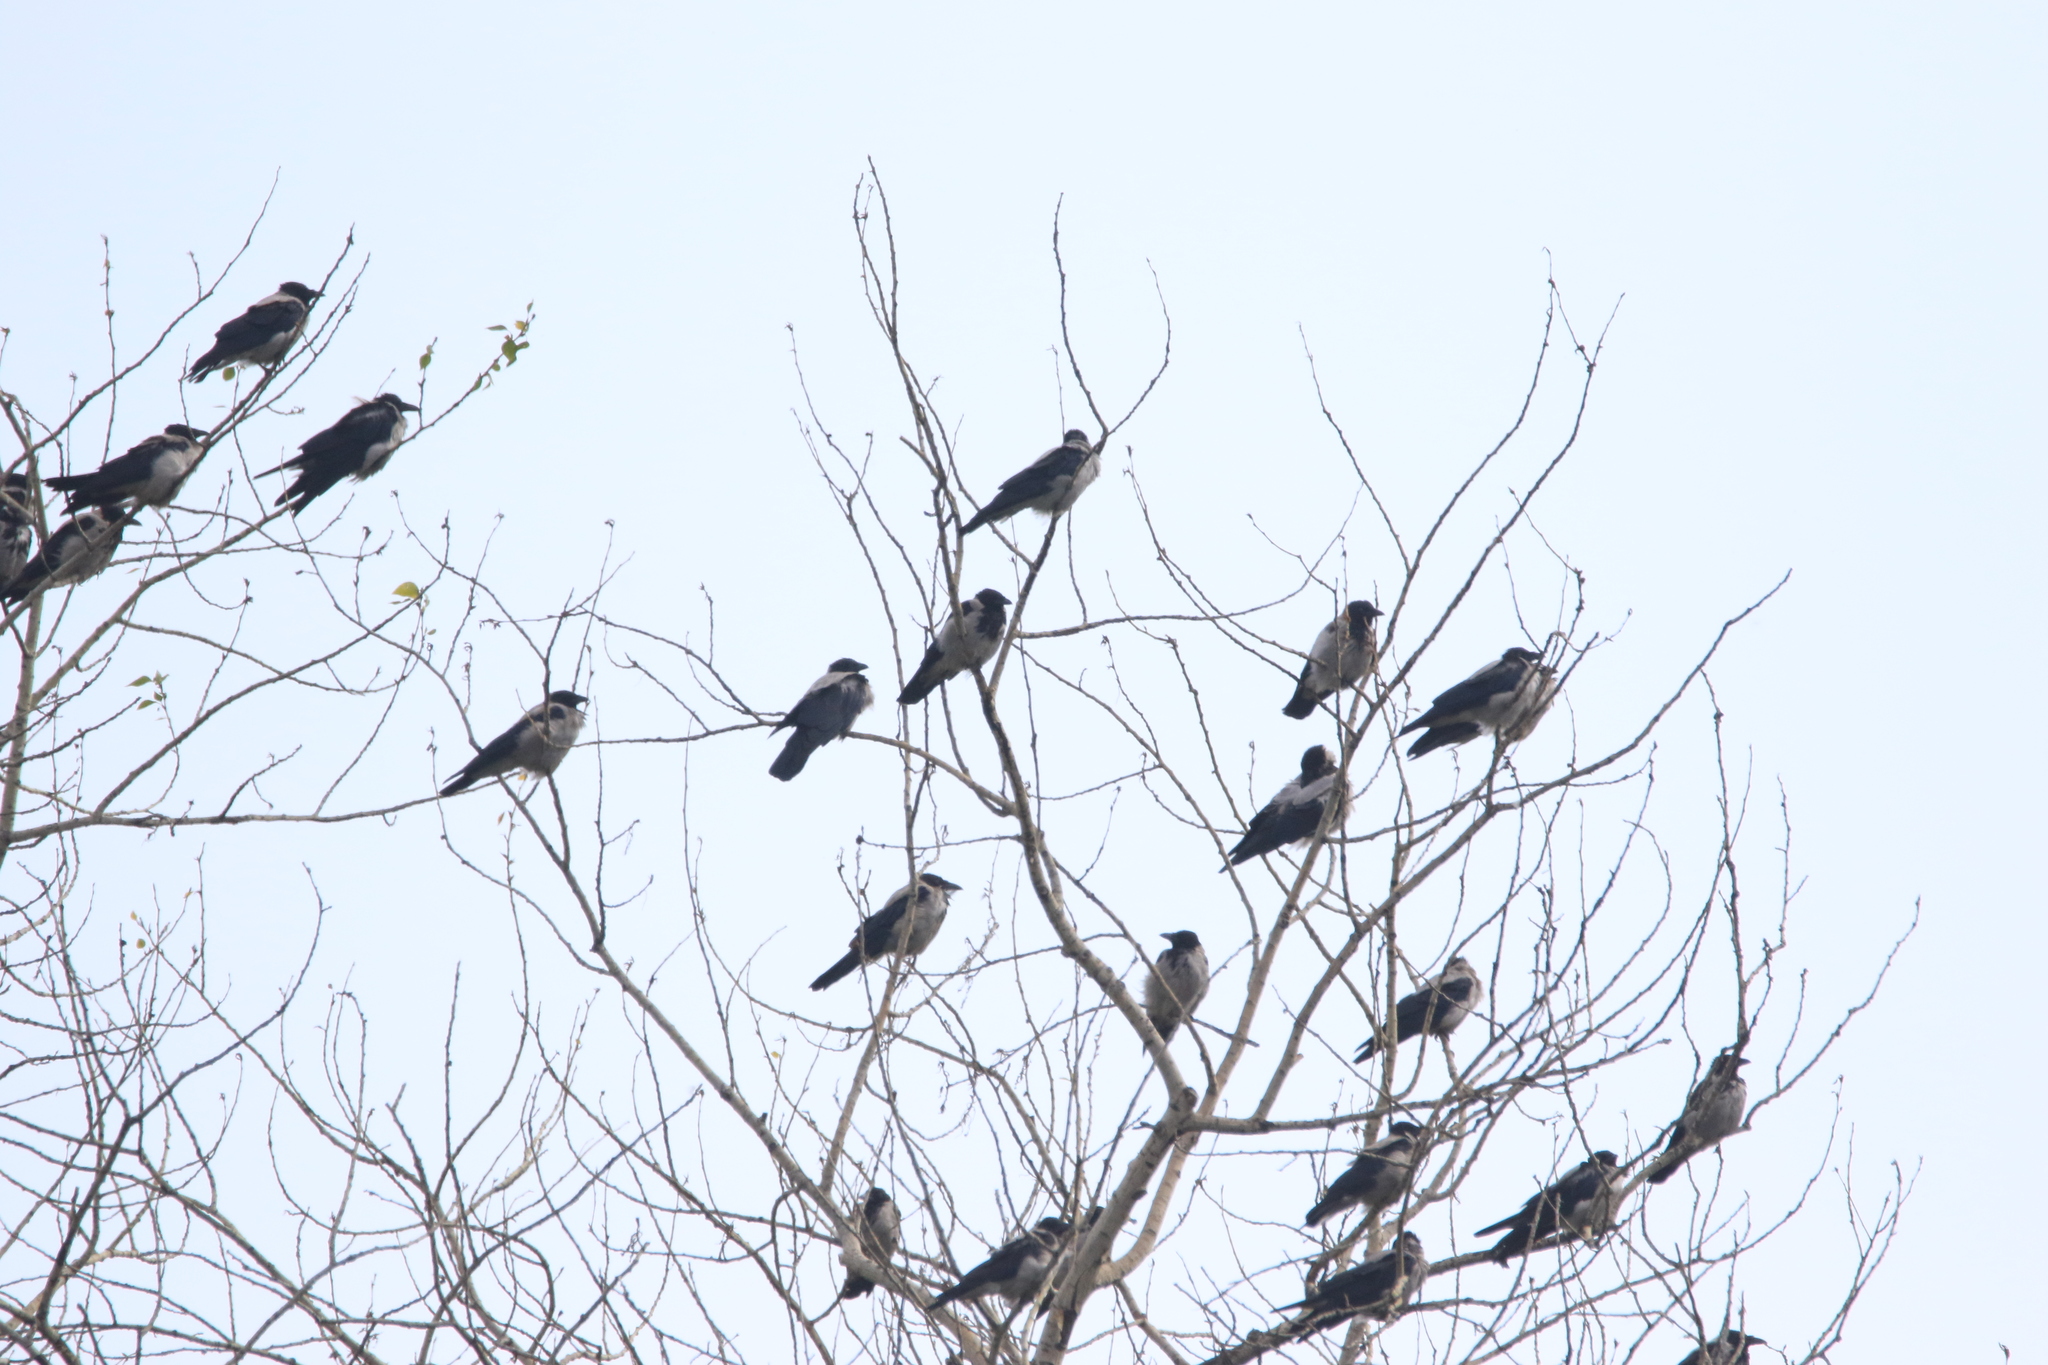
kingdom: Animalia
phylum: Chordata
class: Aves
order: Passeriformes
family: Corvidae
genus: Corvus
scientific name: Corvus cornix
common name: Hooded crow
